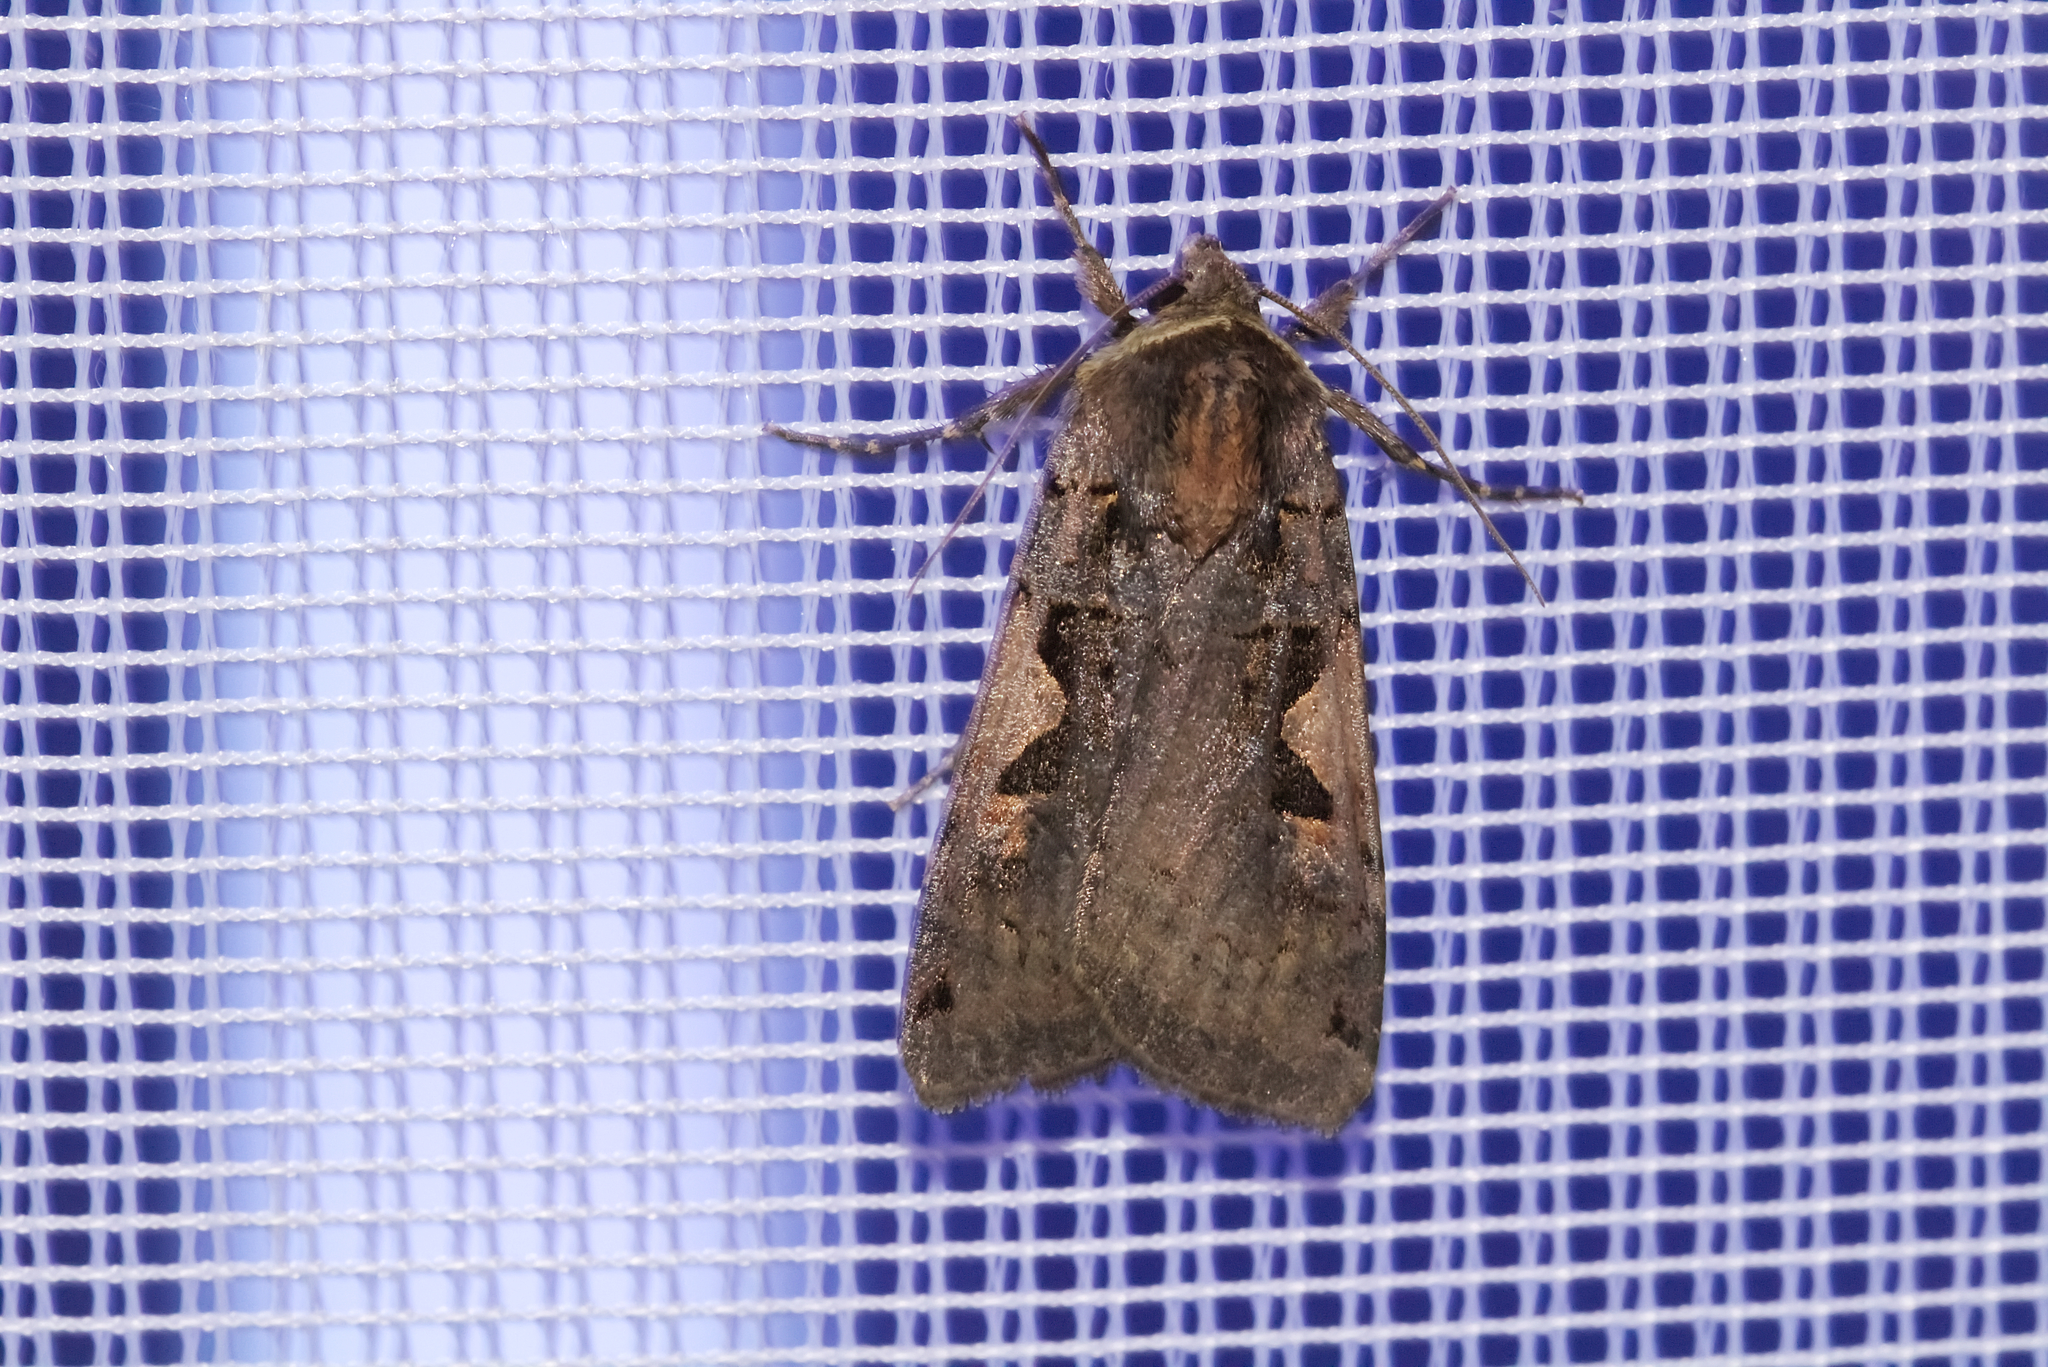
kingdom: Animalia
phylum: Arthropoda
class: Insecta
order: Lepidoptera
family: Noctuidae
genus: Xestia
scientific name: Xestia c-nigrum
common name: Setaceous hebrew character
